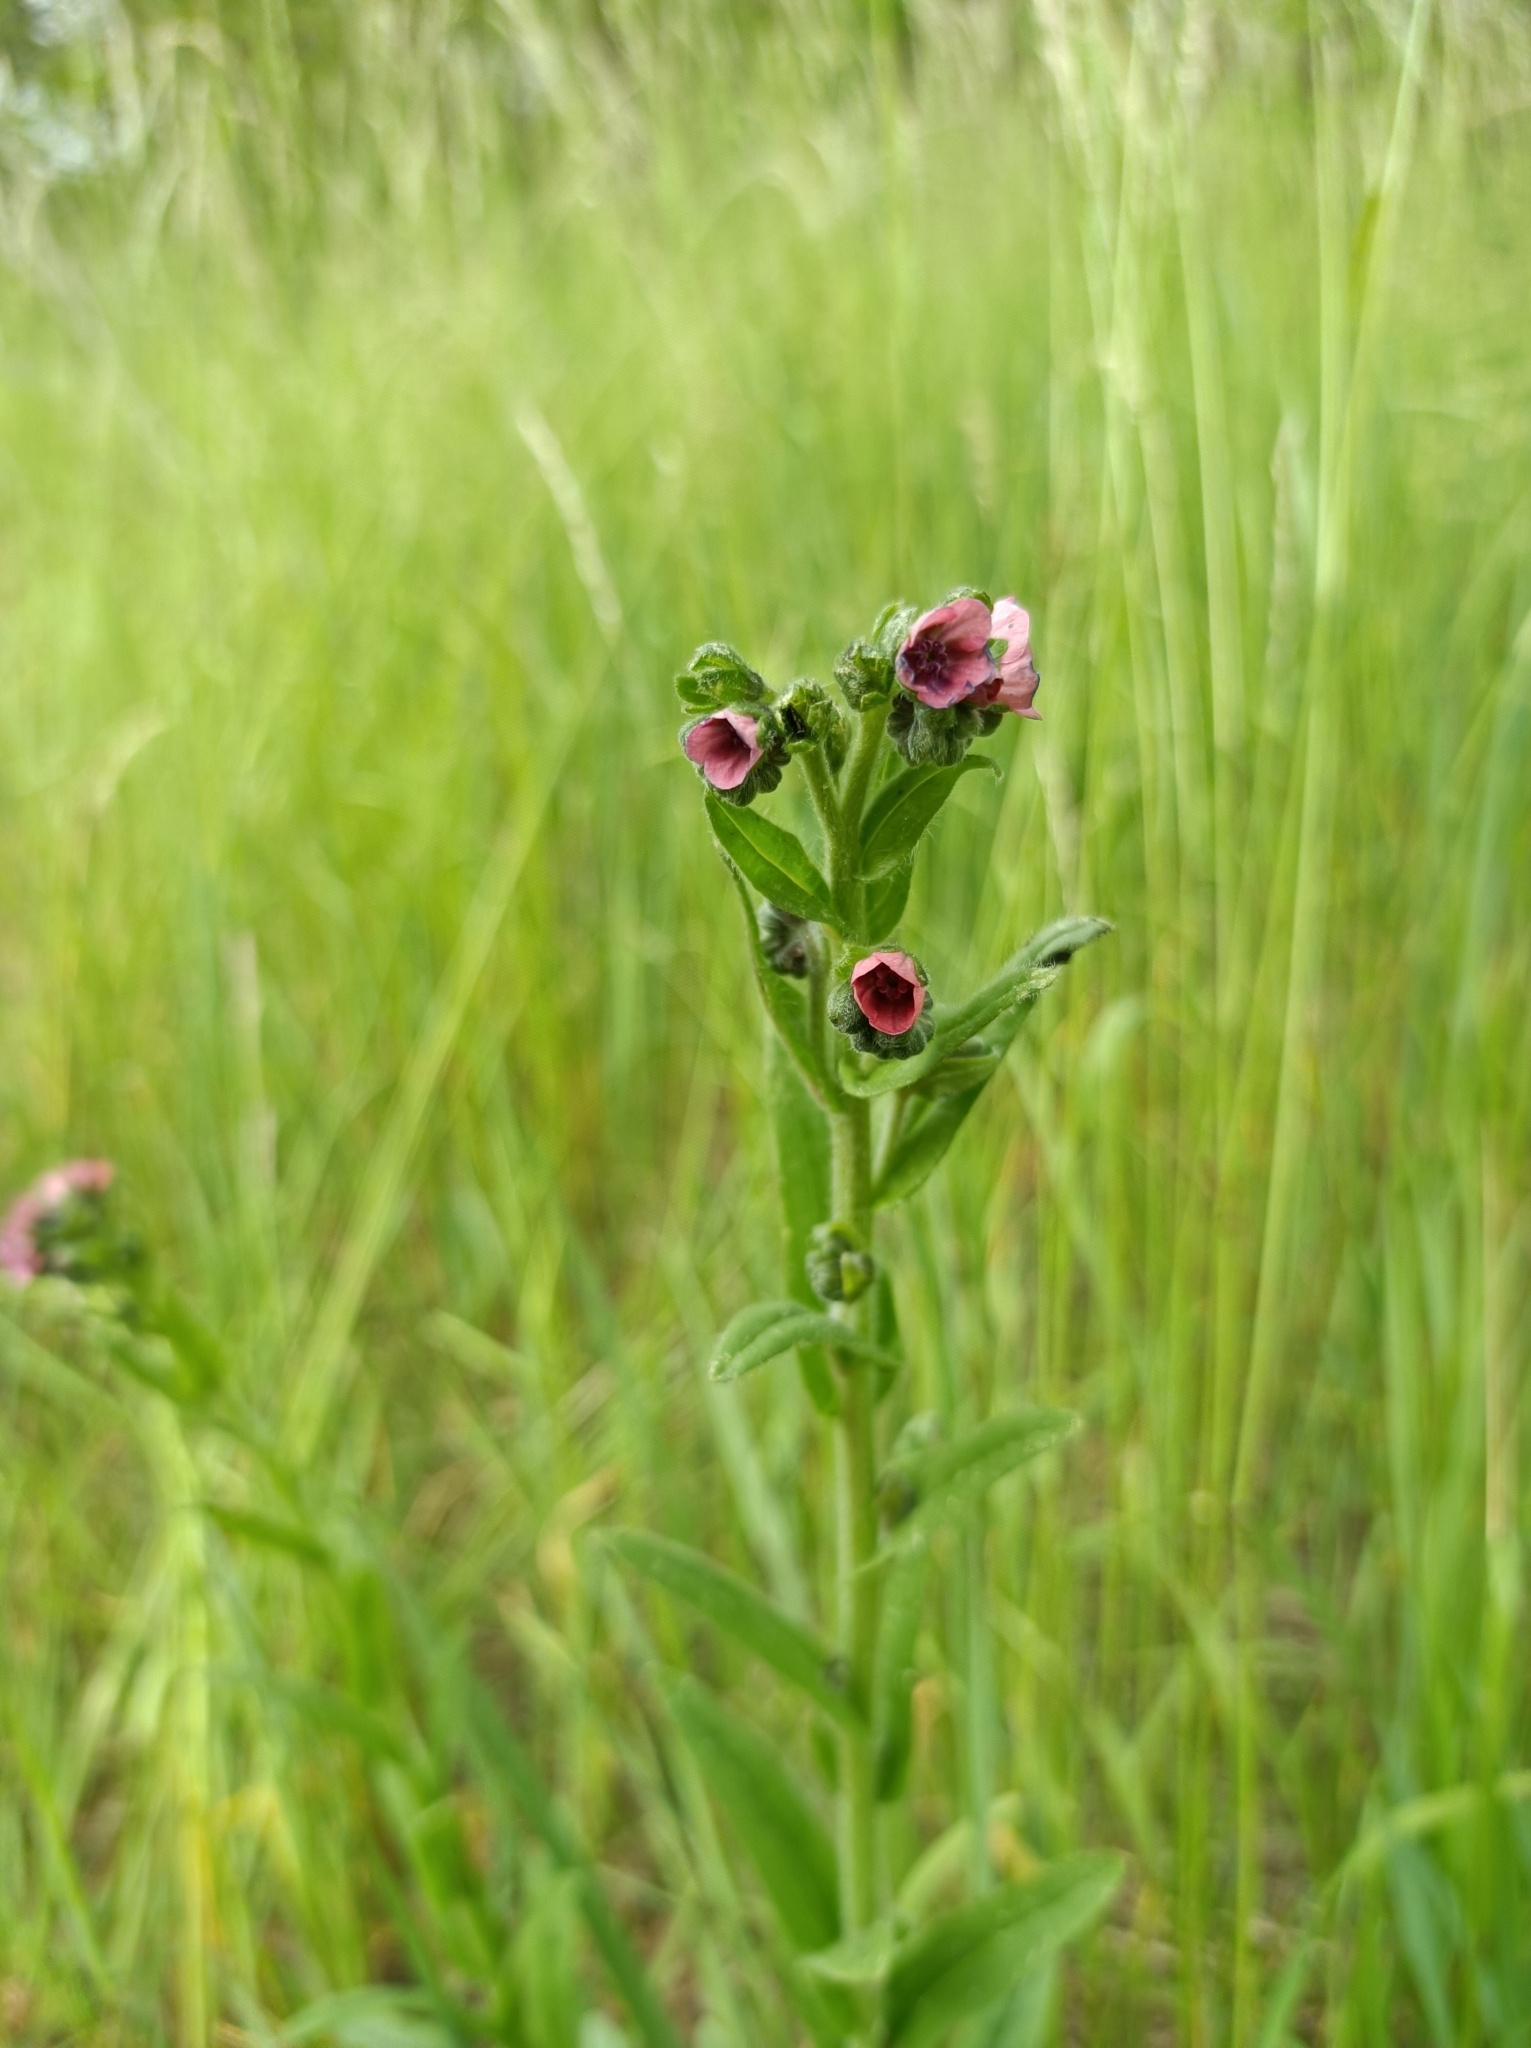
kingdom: Plantae
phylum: Tracheophyta
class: Magnoliopsida
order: Boraginales
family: Boraginaceae
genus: Cynoglossum
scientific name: Cynoglossum officinale
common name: Hound's-tongue
